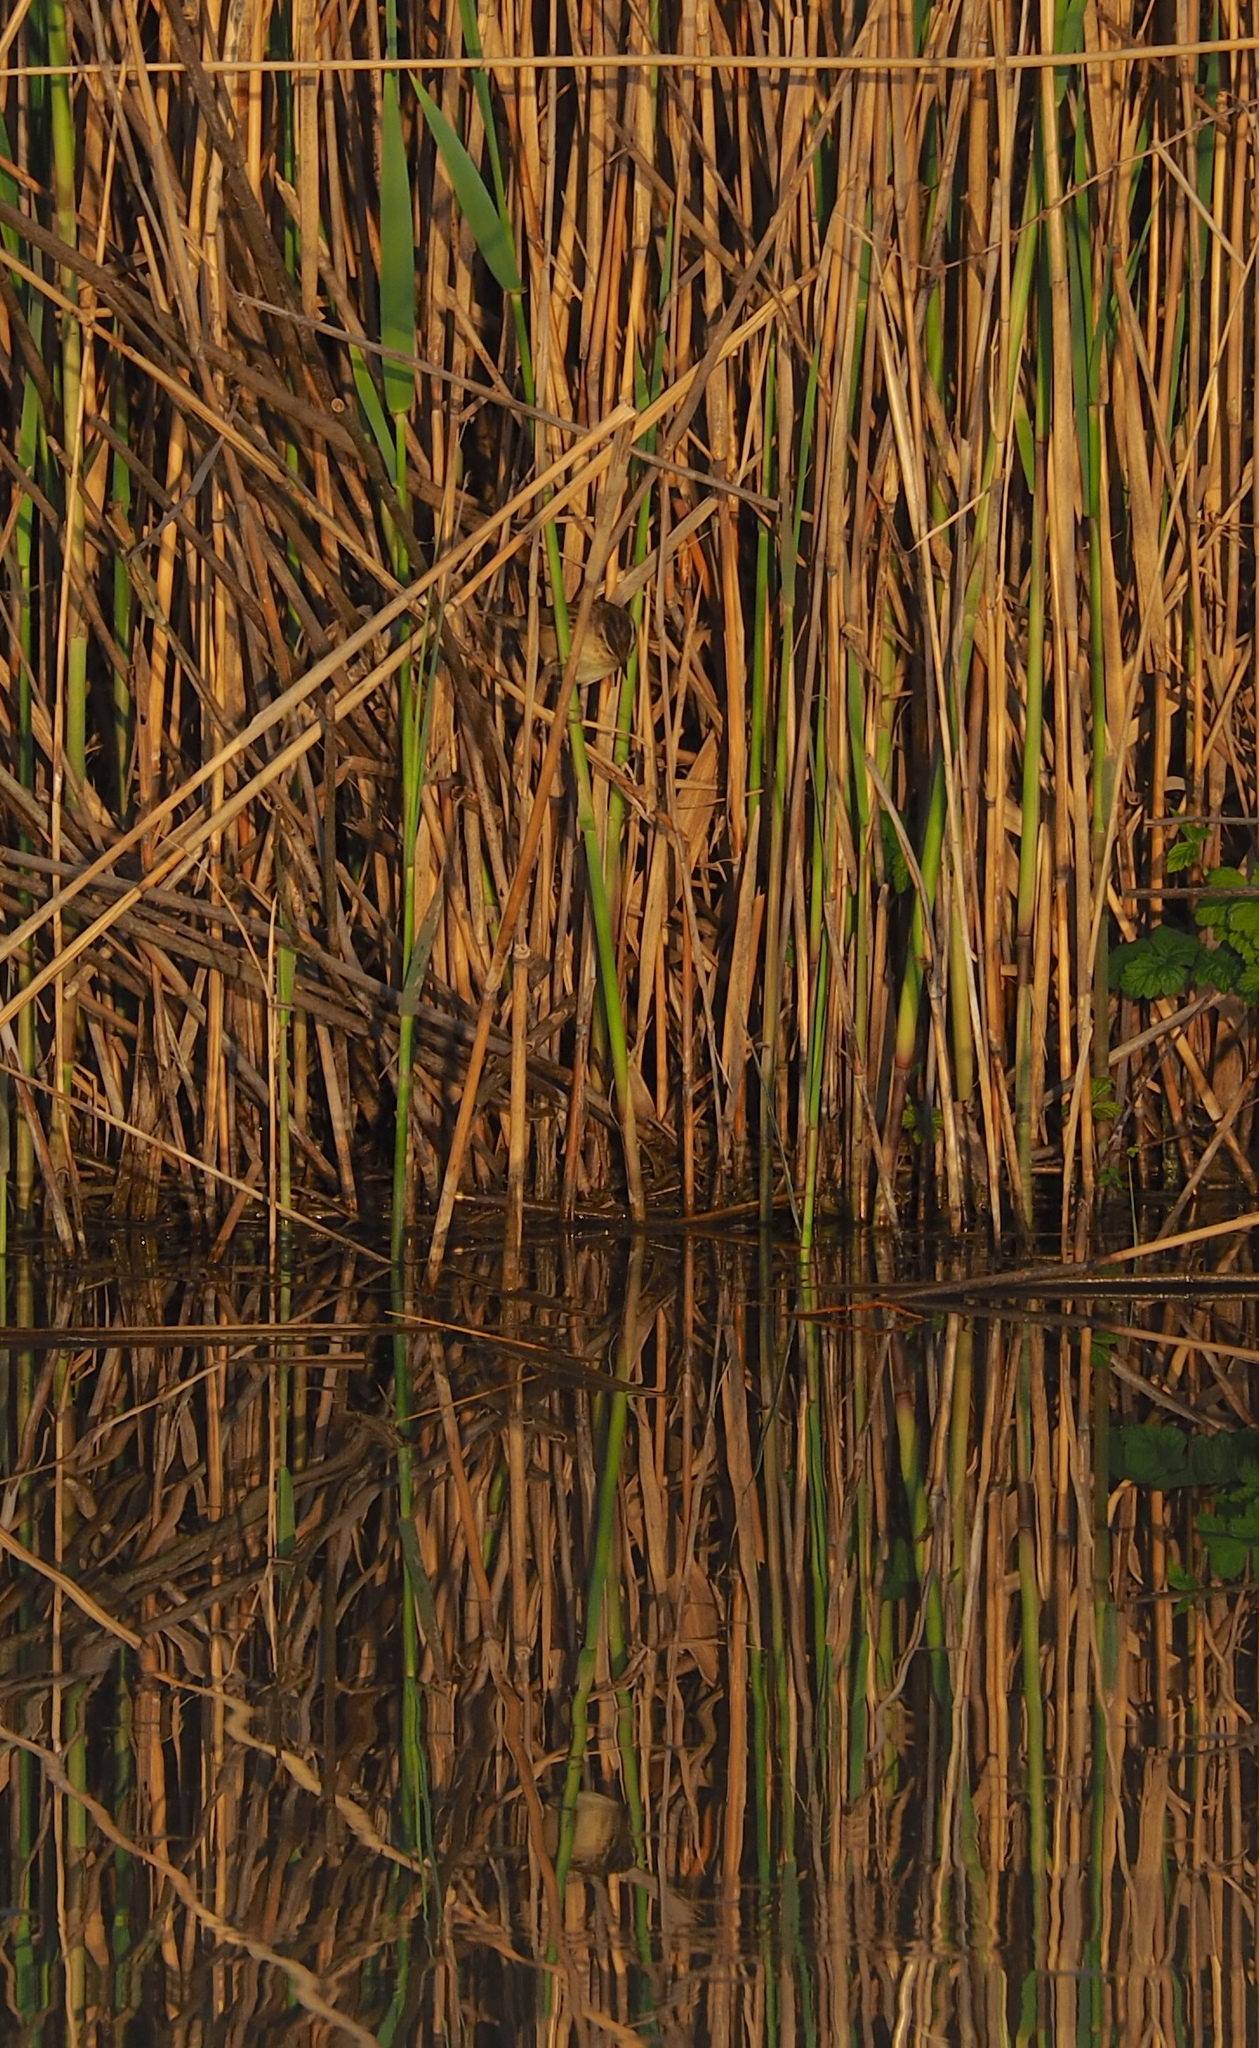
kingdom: Animalia
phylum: Chordata
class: Aves
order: Passeriformes
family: Acrocephalidae
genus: Acrocephalus
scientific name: Acrocephalus schoenobaenus
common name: Sedge warbler
